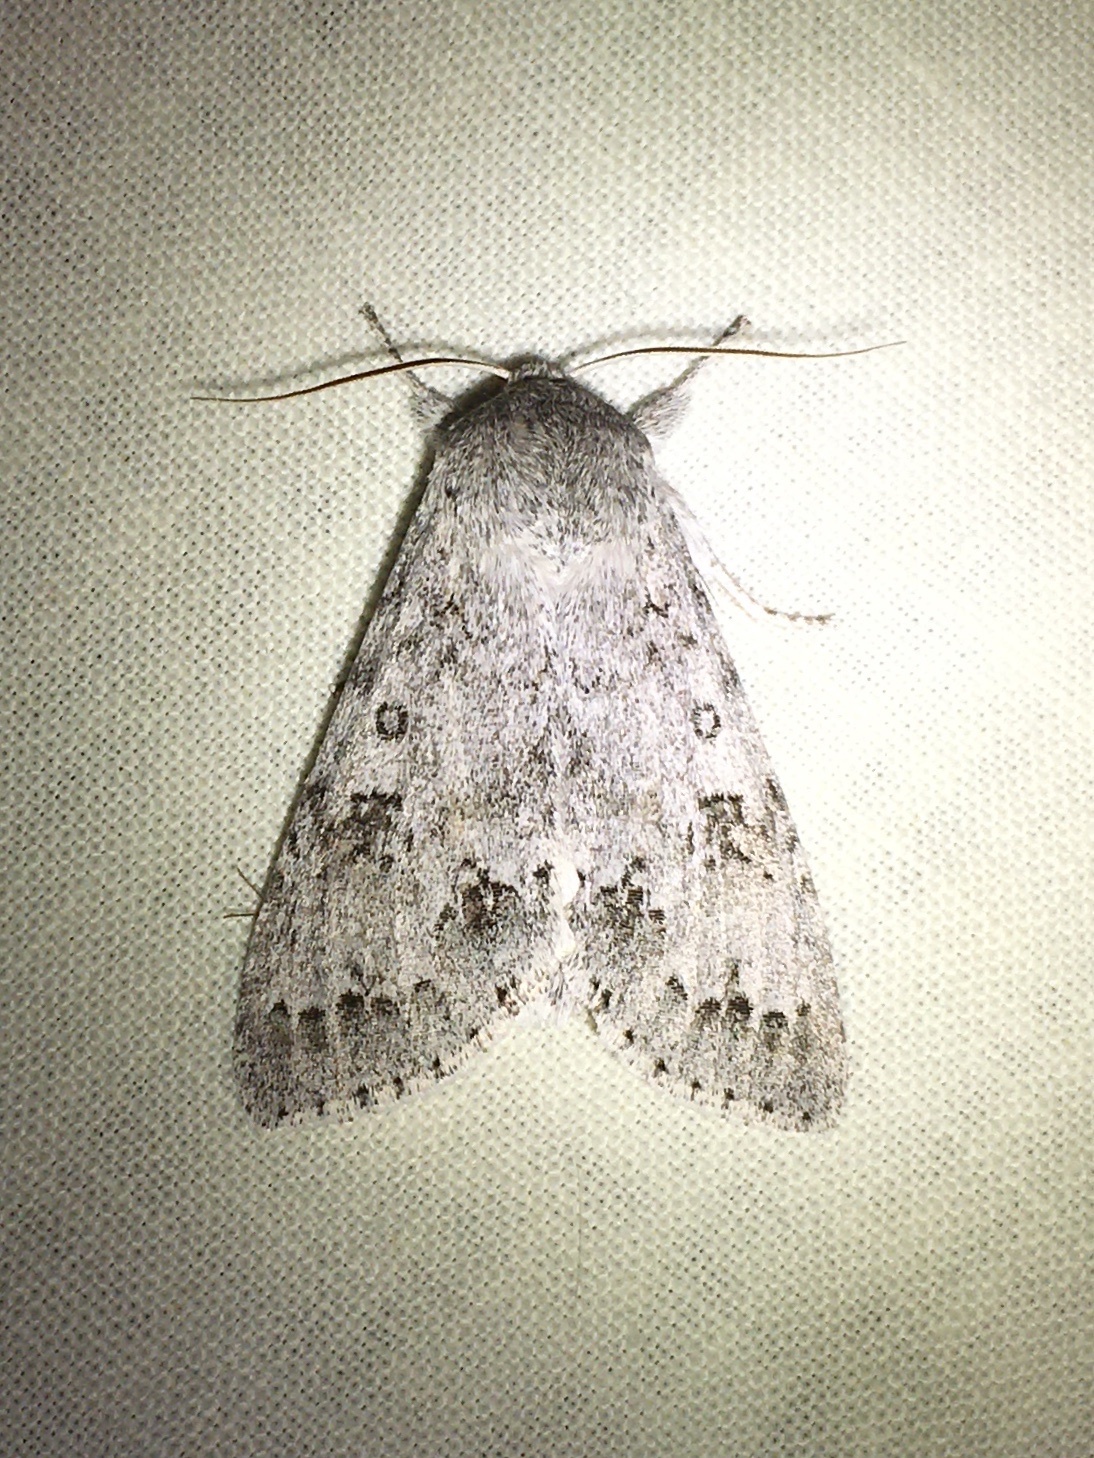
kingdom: Animalia
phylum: Arthropoda
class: Insecta
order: Lepidoptera
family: Noctuidae
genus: Acronicta
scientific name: Acronicta insita
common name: Large gray dagger
